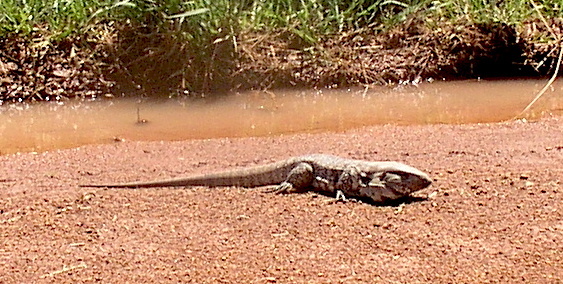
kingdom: Animalia
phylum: Chordata
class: Squamata
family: Teiidae
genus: Salvator
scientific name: Salvator merianae
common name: Argentine black and white tegu
